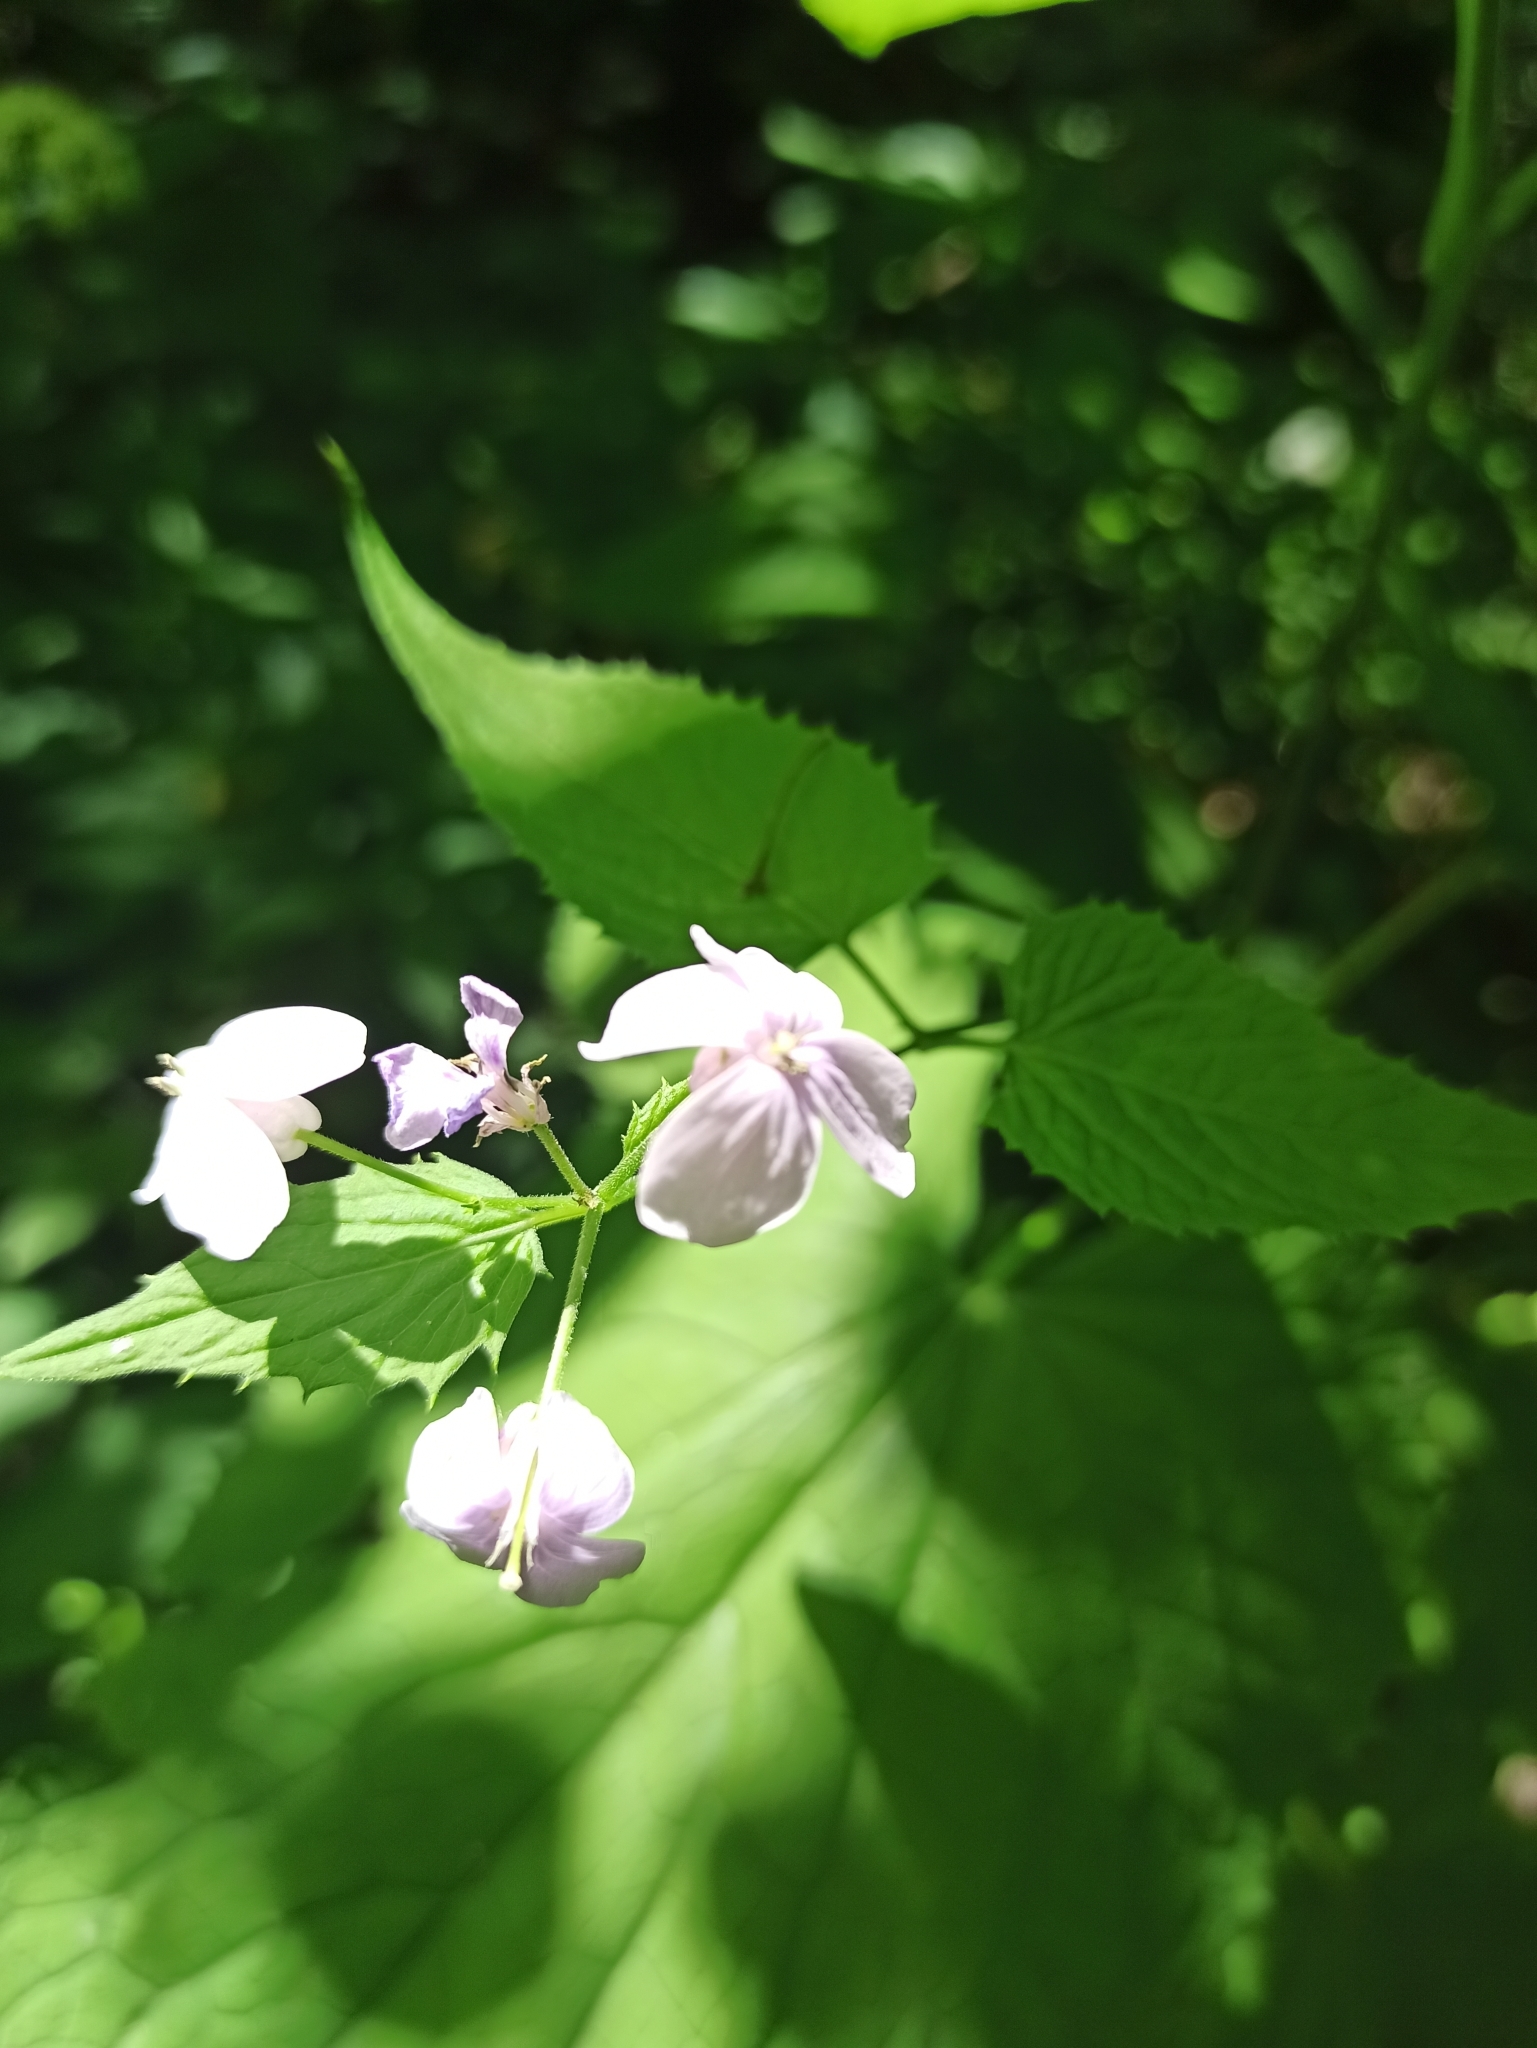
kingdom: Plantae
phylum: Tracheophyta
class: Magnoliopsida
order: Brassicales
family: Brassicaceae
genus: Lunaria
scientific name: Lunaria rediviva
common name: Perennial honesty
